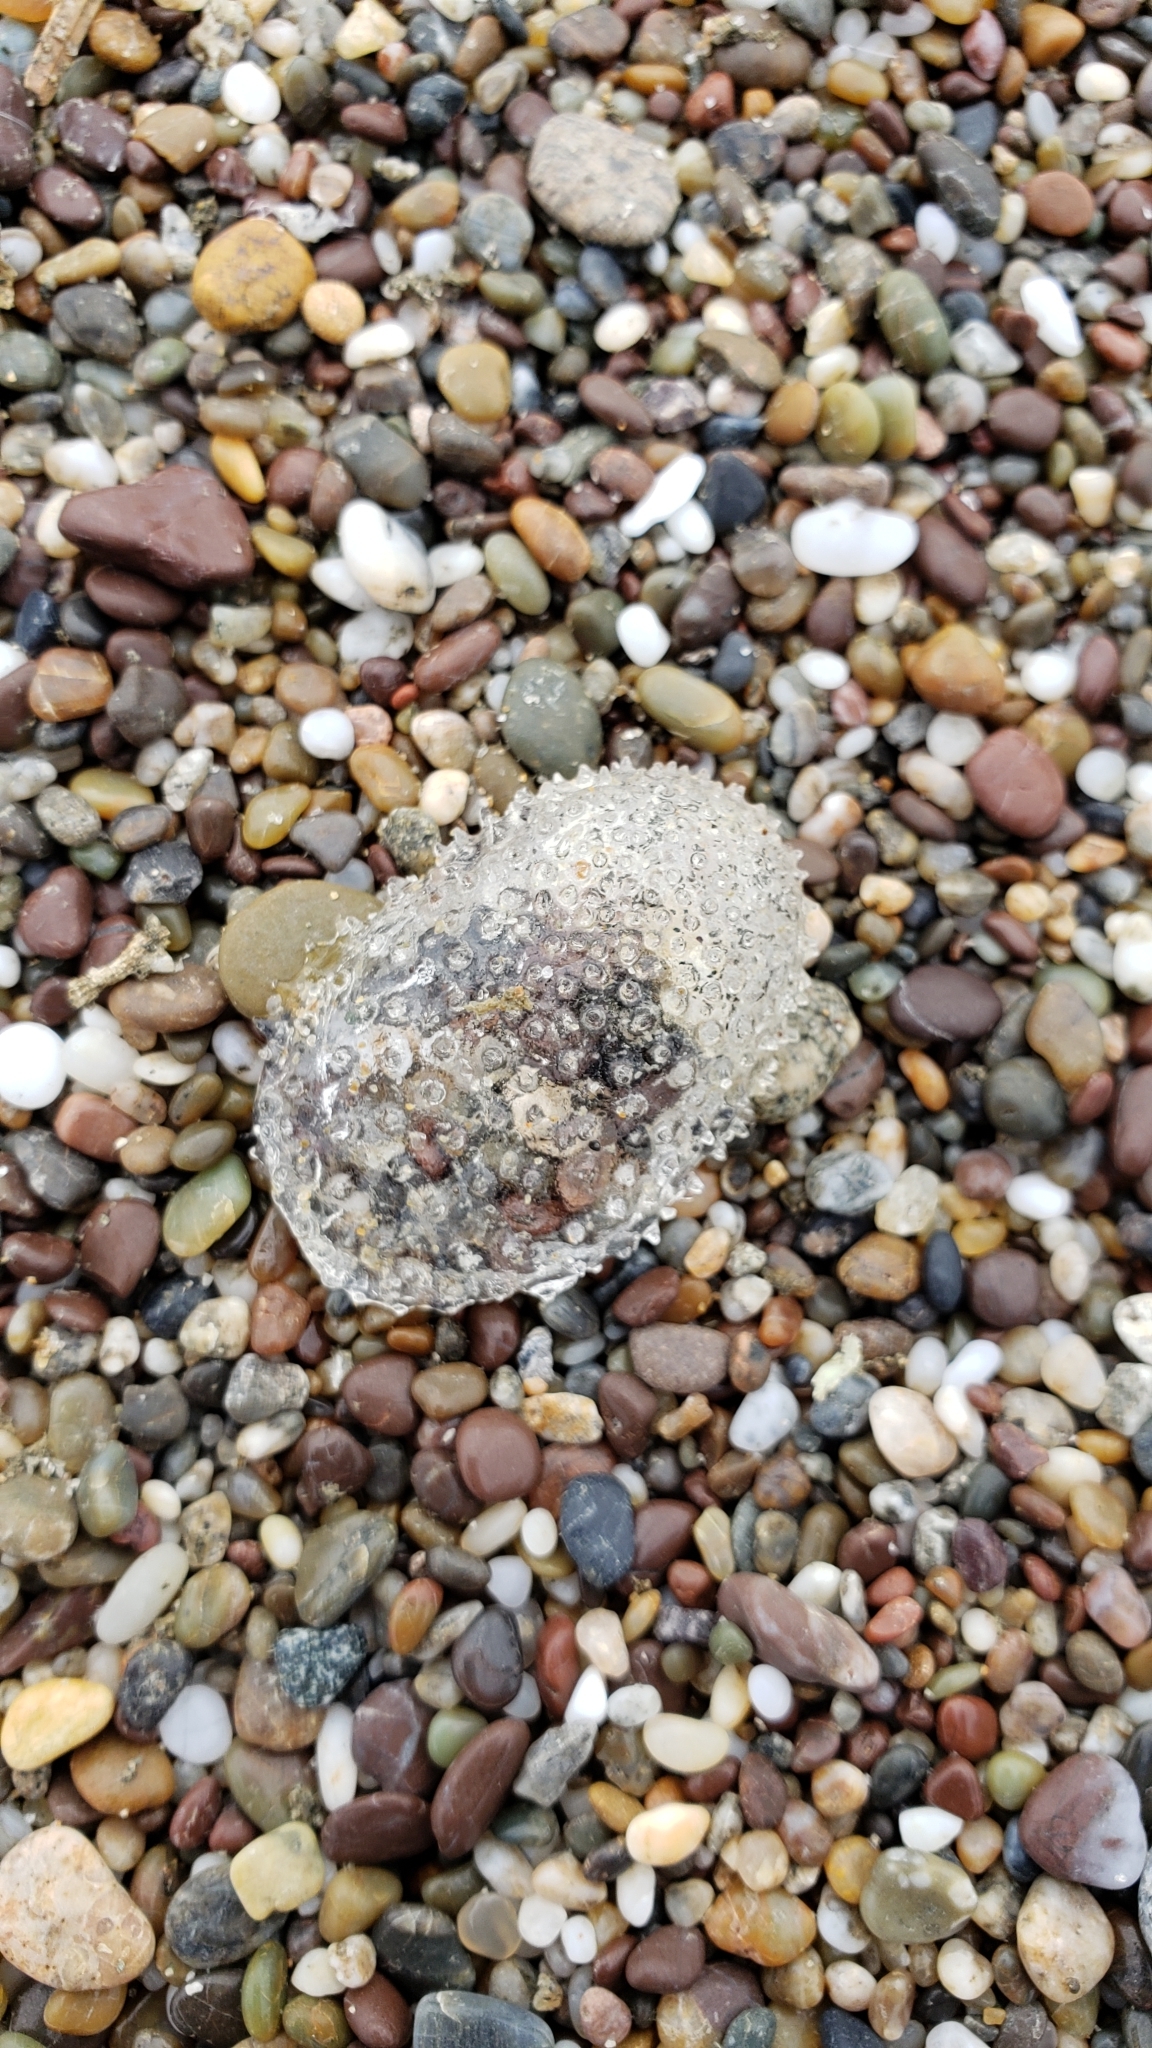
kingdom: Animalia
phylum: Mollusca
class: Gastropoda
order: Pteropoda
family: Cymbuliidae
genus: Corolla
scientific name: Corolla spectabilis
